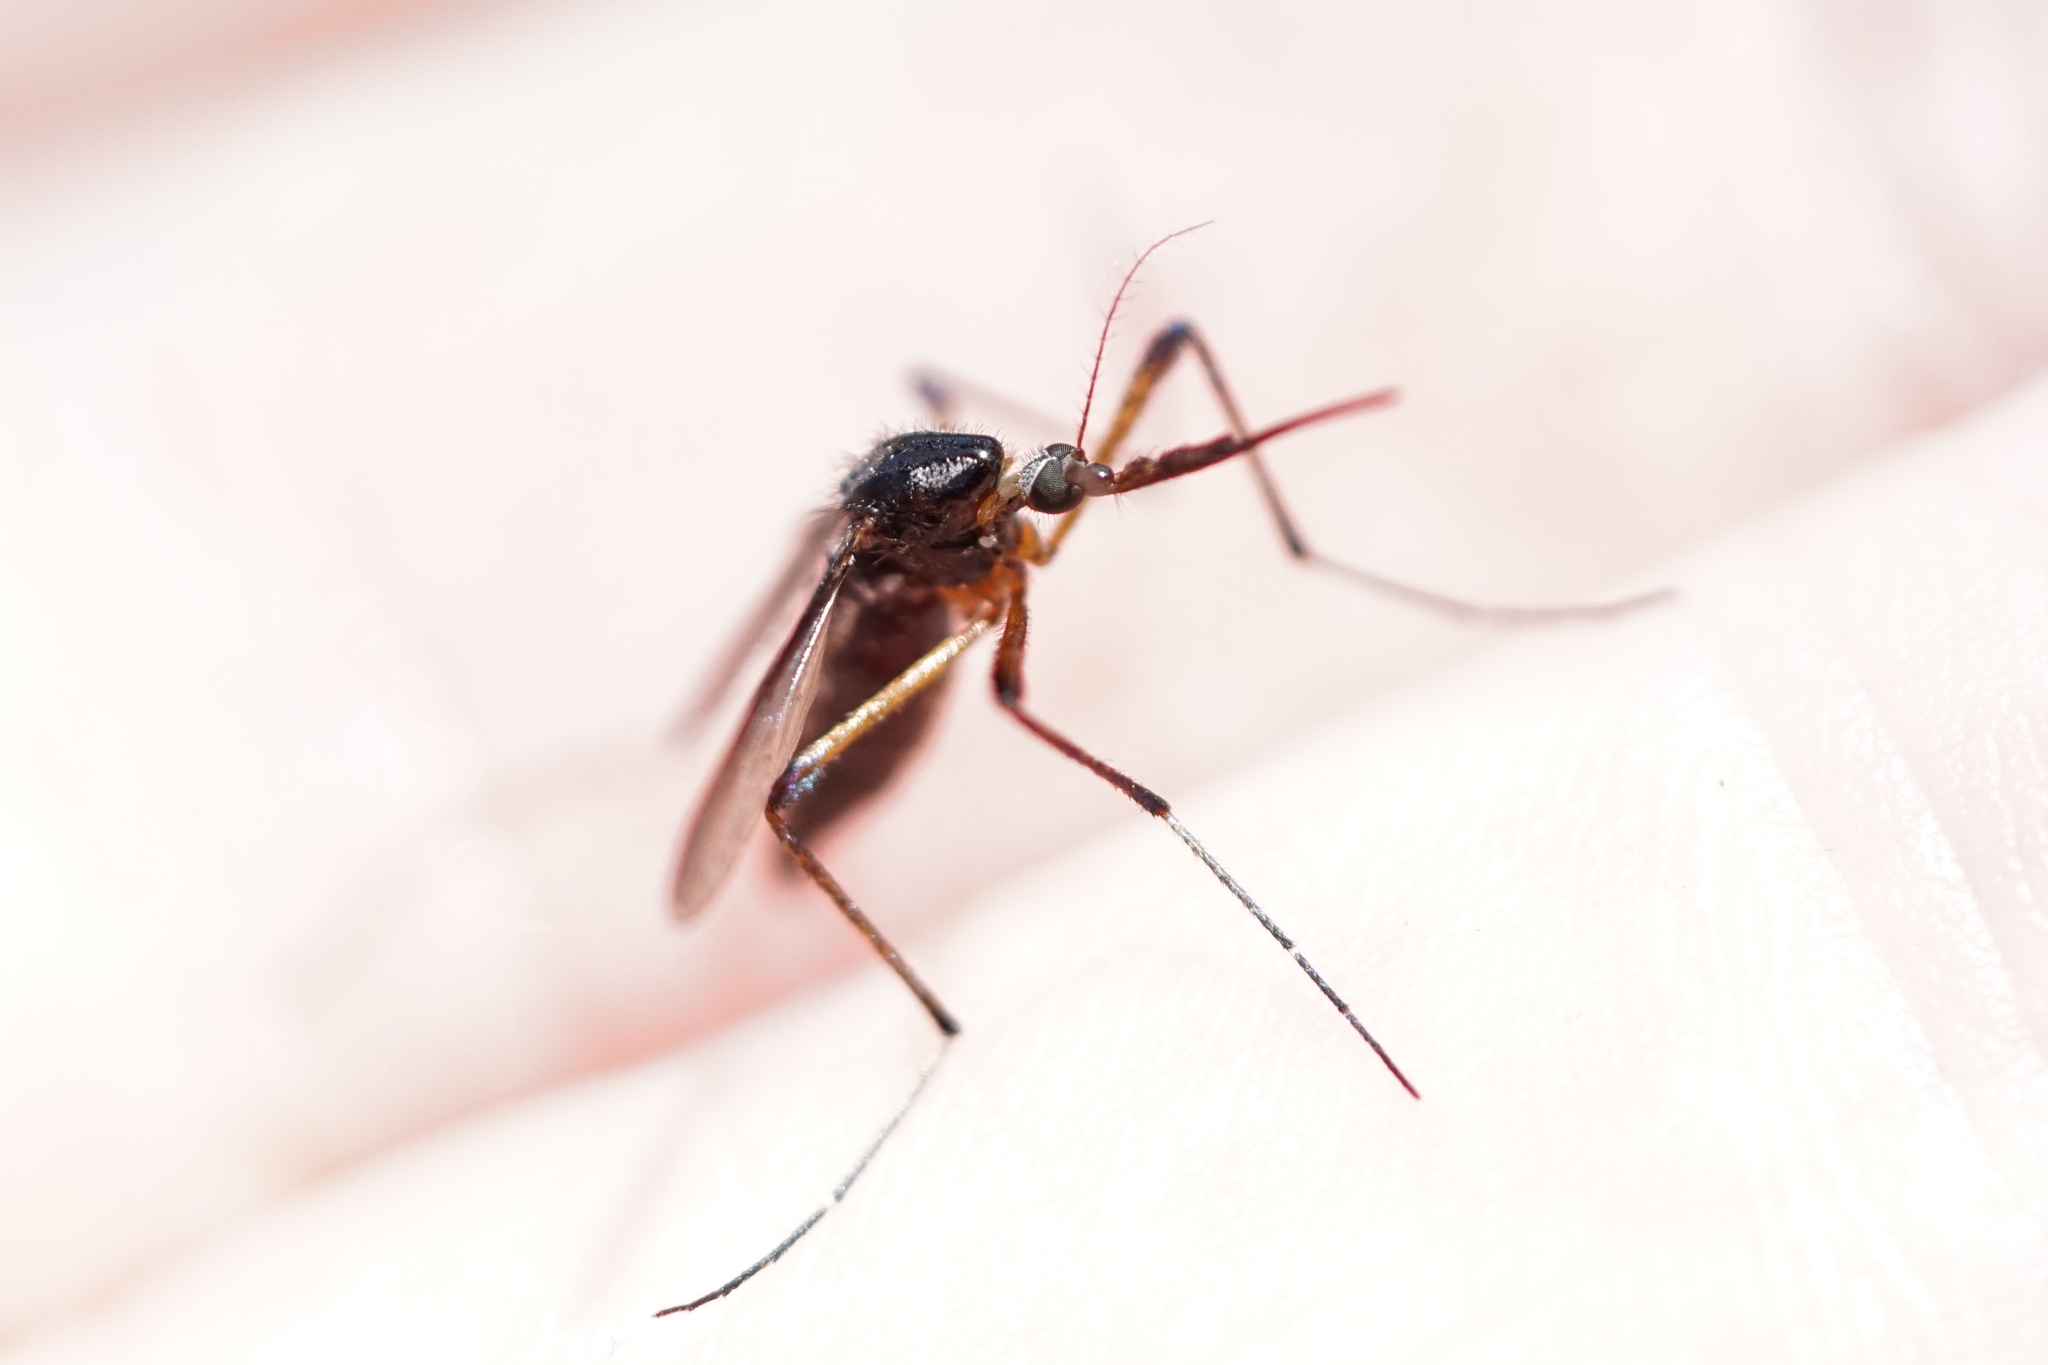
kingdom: Animalia
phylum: Arthropoda
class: Insecta
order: Diptera
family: Culicidae
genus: Psorophora
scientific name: Psorophora howardii
